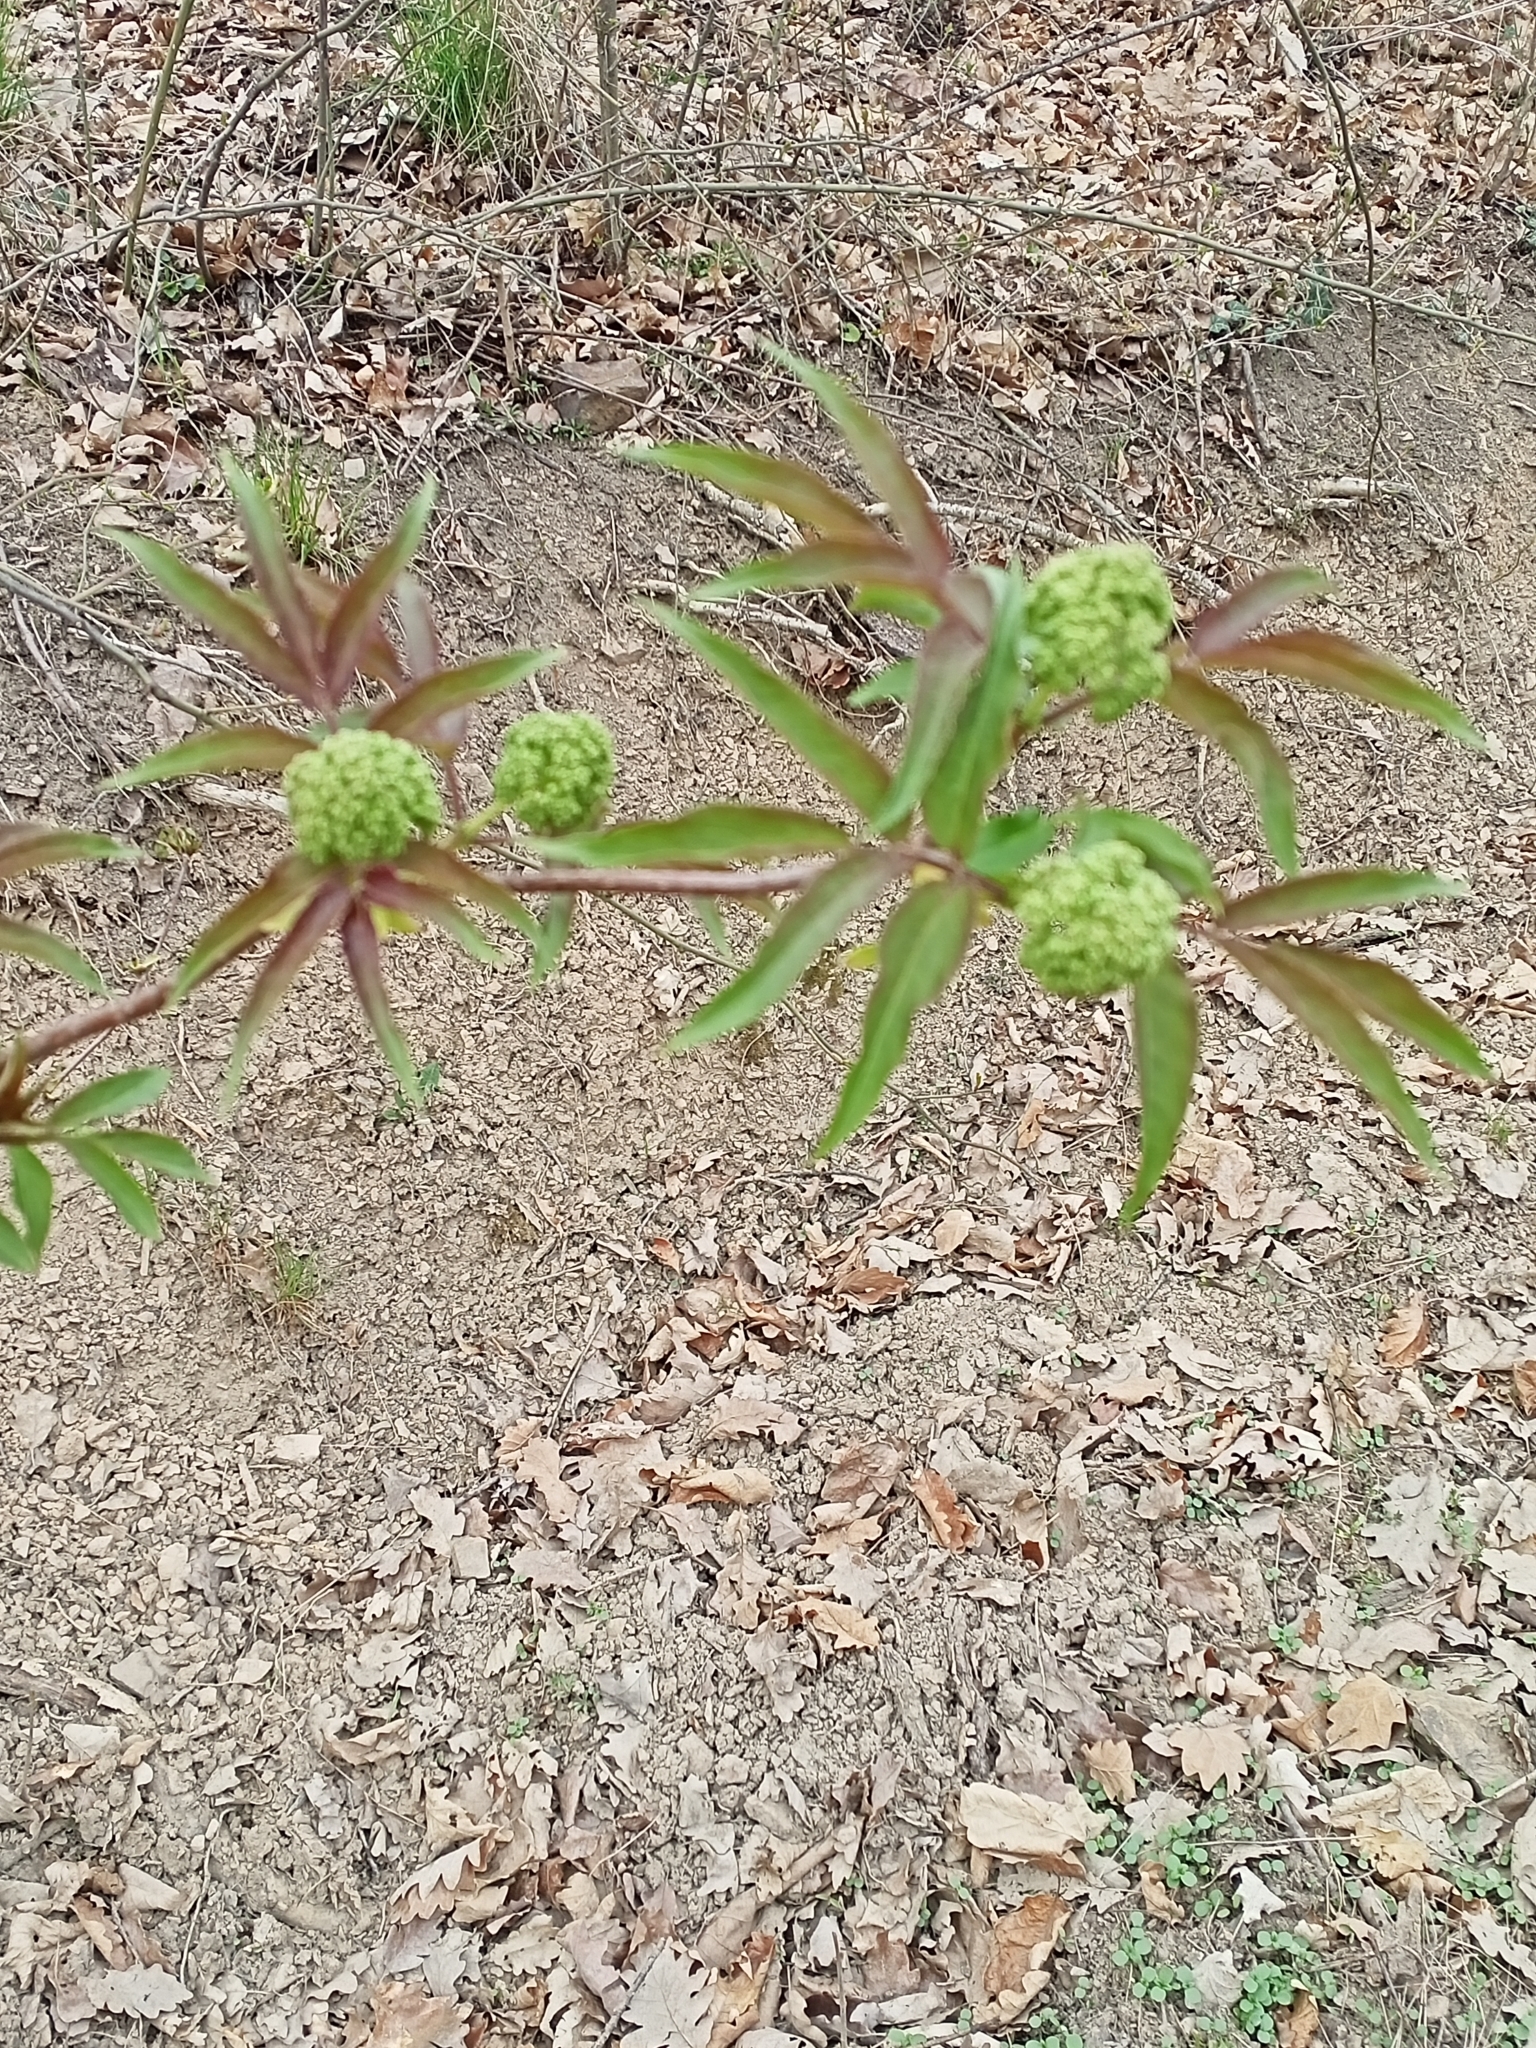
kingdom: Plantae
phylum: Tracheophyta
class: Magnoliopsida
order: Dipsacales
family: Viburnaceae
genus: Sambucus
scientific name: Sambucus racemosa
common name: Red-berried elder
